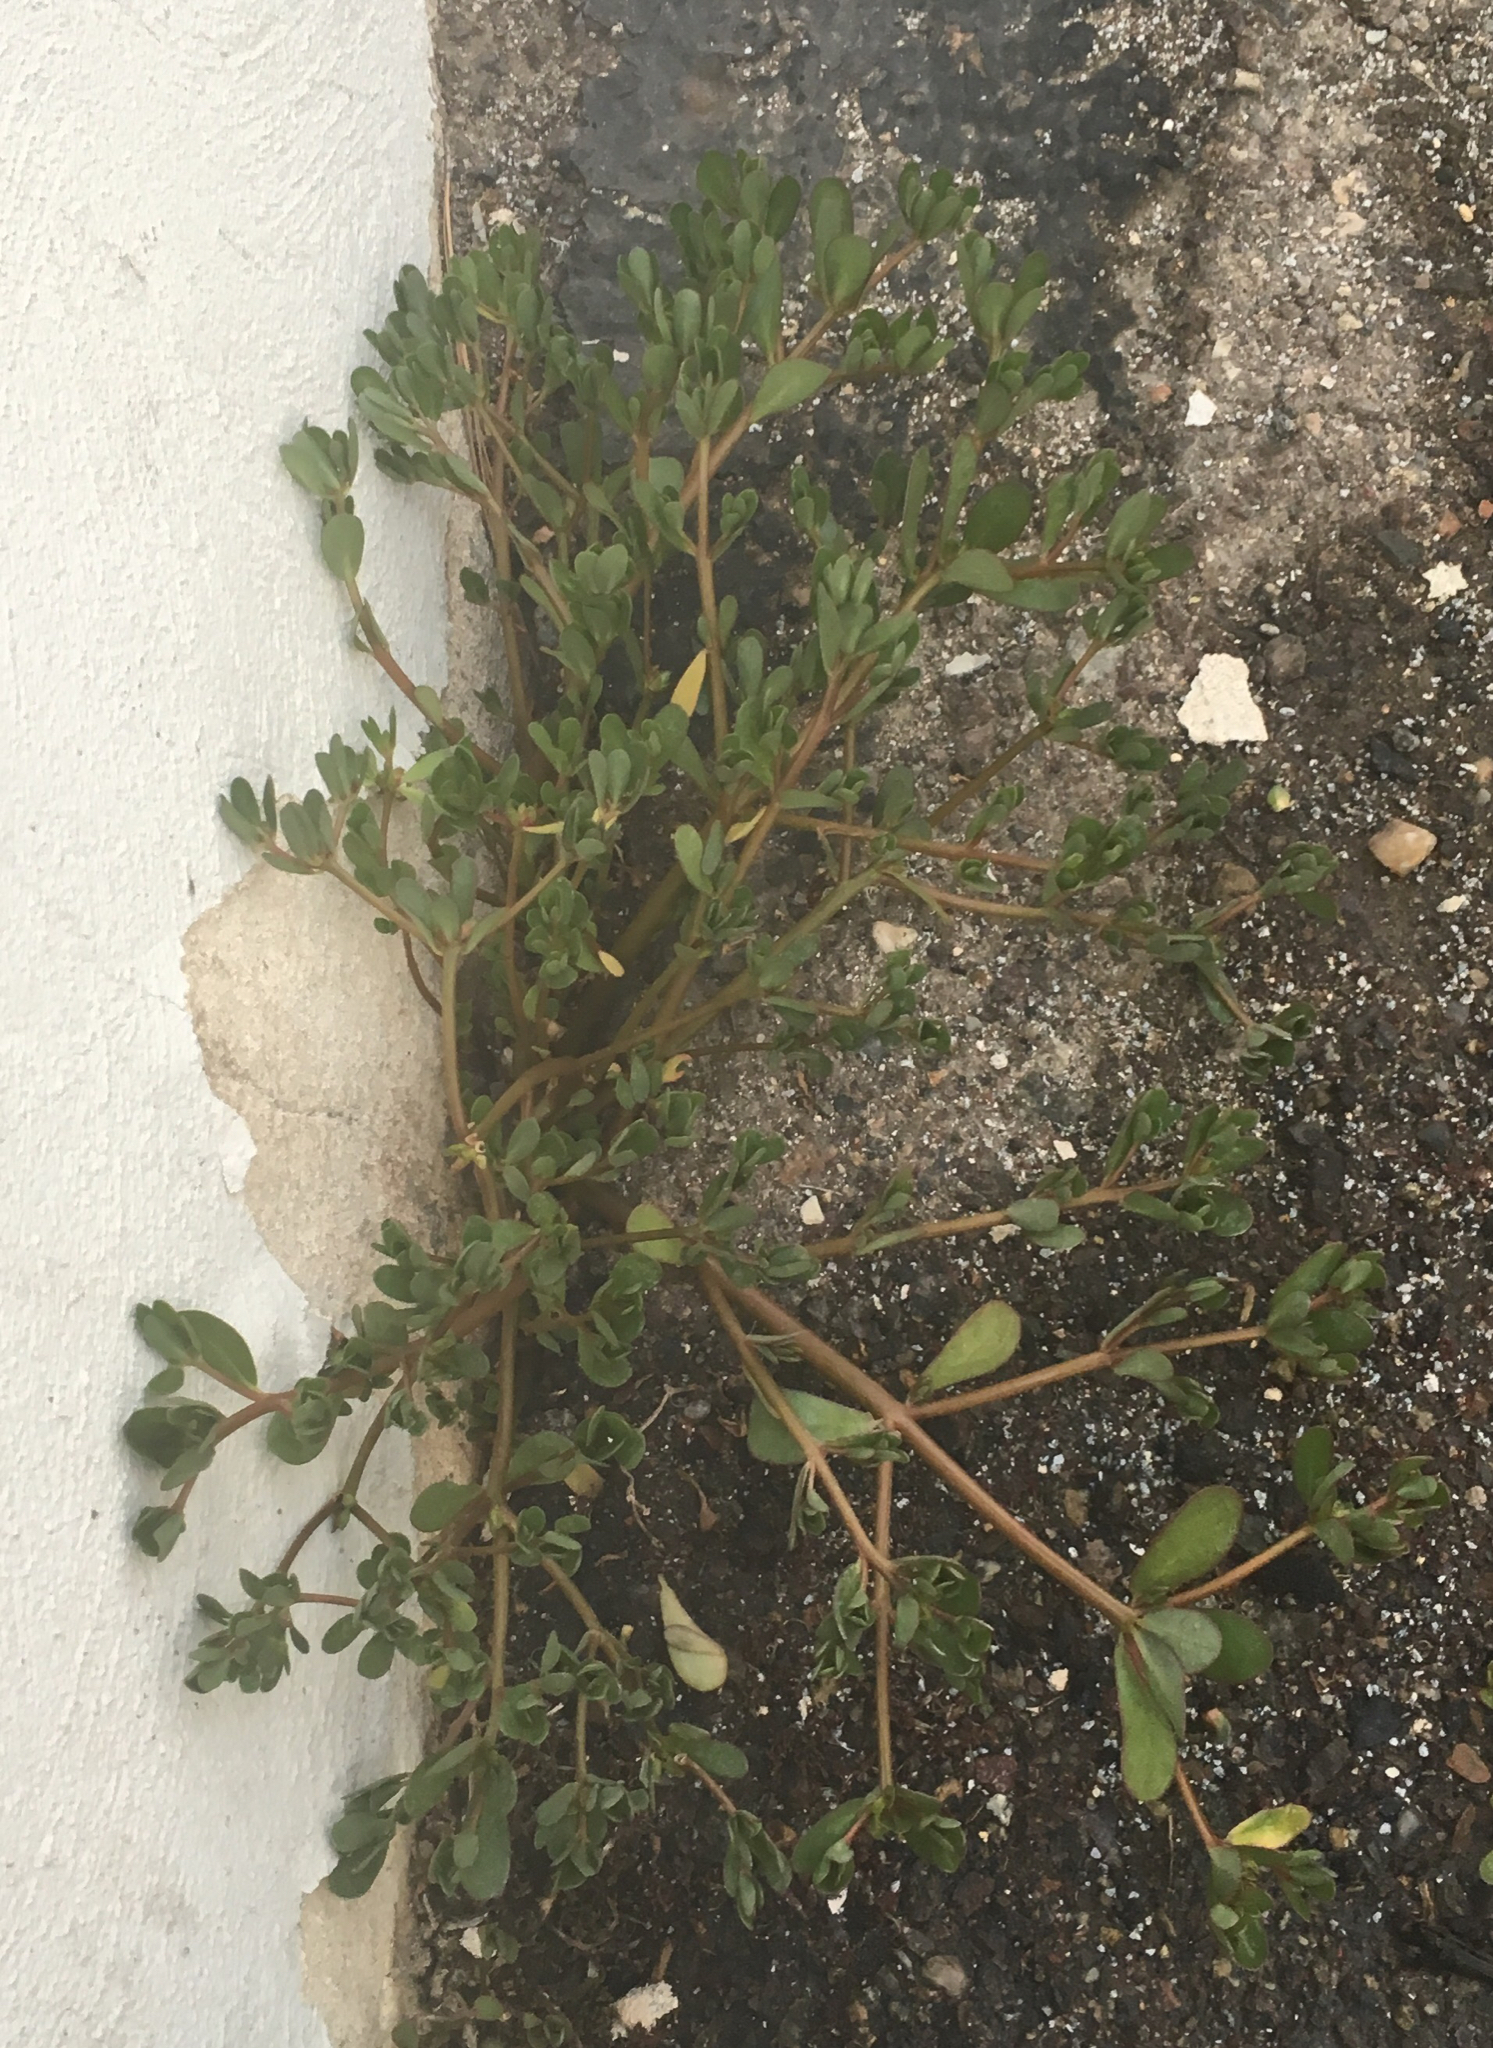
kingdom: Plantae
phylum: Tracheophyta
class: Magnoliopsida
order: Caryophyllales
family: Portulacaceae
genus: Portulaca
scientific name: Portulaca oleracea
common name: Common purslane
